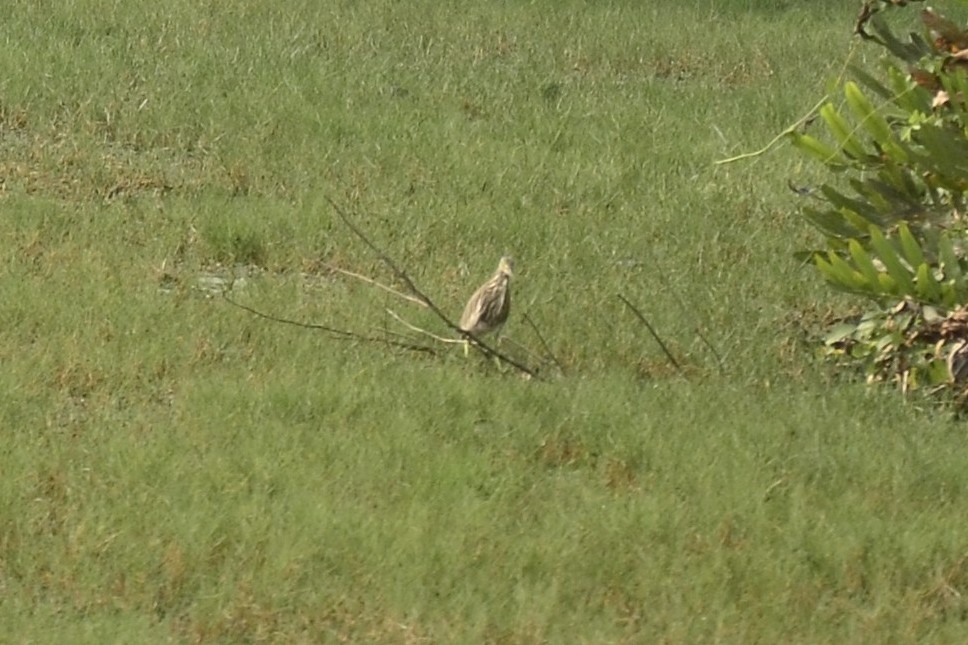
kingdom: Animalia
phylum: Chordata
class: Aves
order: Pelecaniformes
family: Ardeidae
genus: Ardeola
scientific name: Ardeola grayii
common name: Indian pond heron
